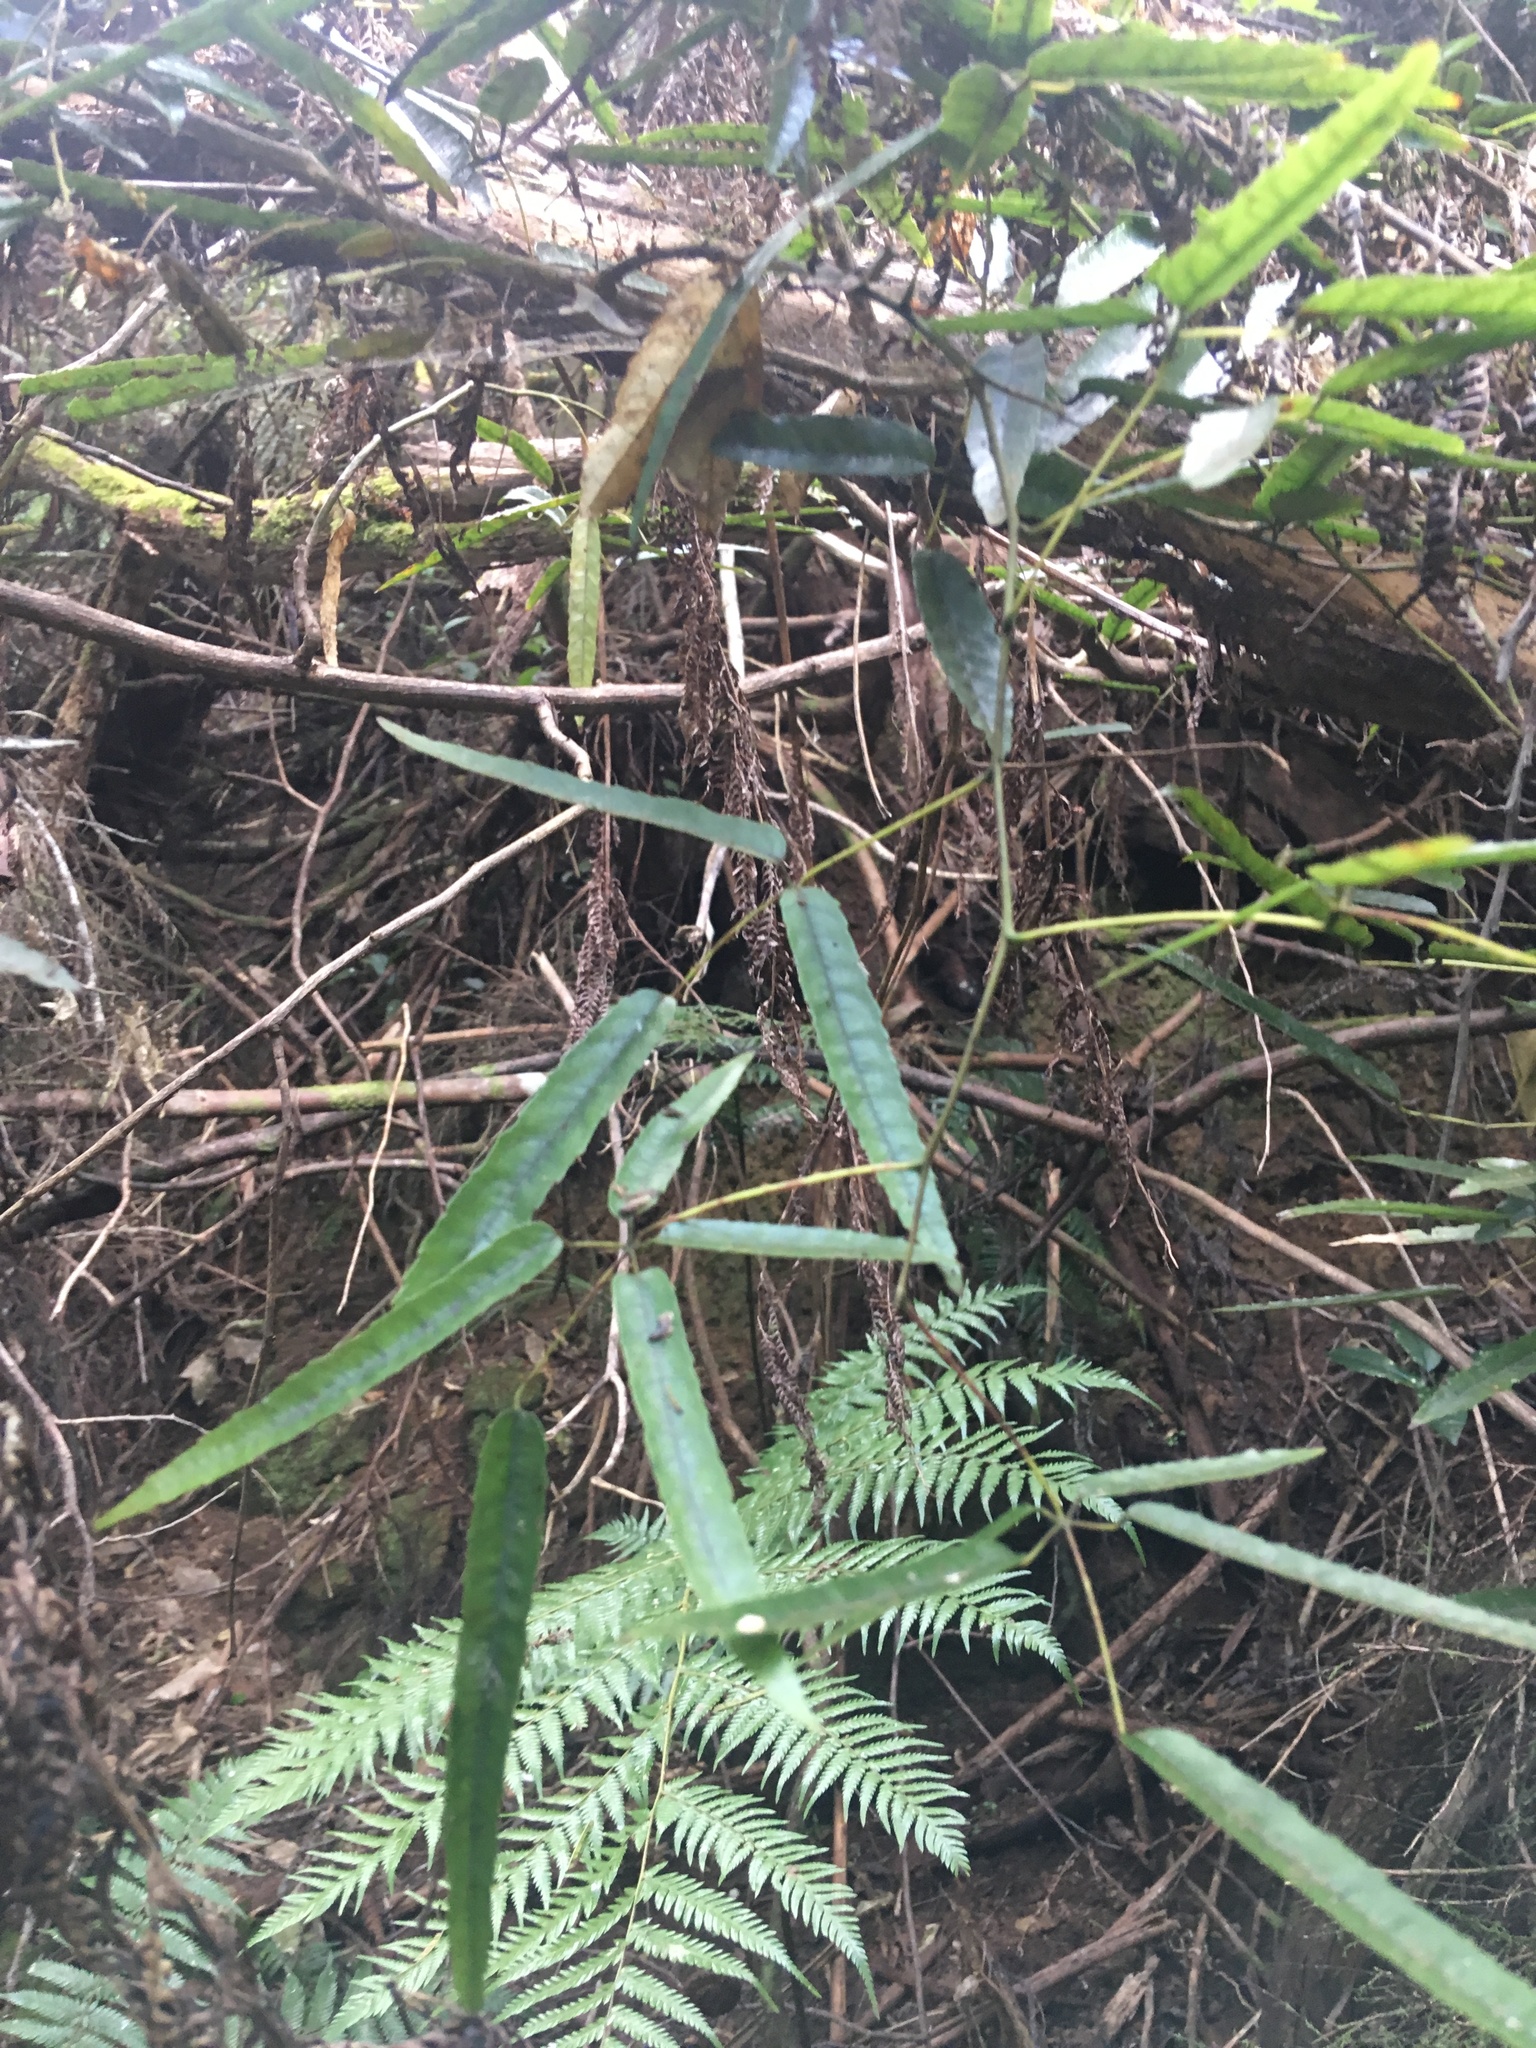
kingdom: Plantae
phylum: Tracheophyta
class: Magnoliopsida
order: Rosales
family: Rosaceae
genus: Rubus
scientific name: Rubus cissoides
